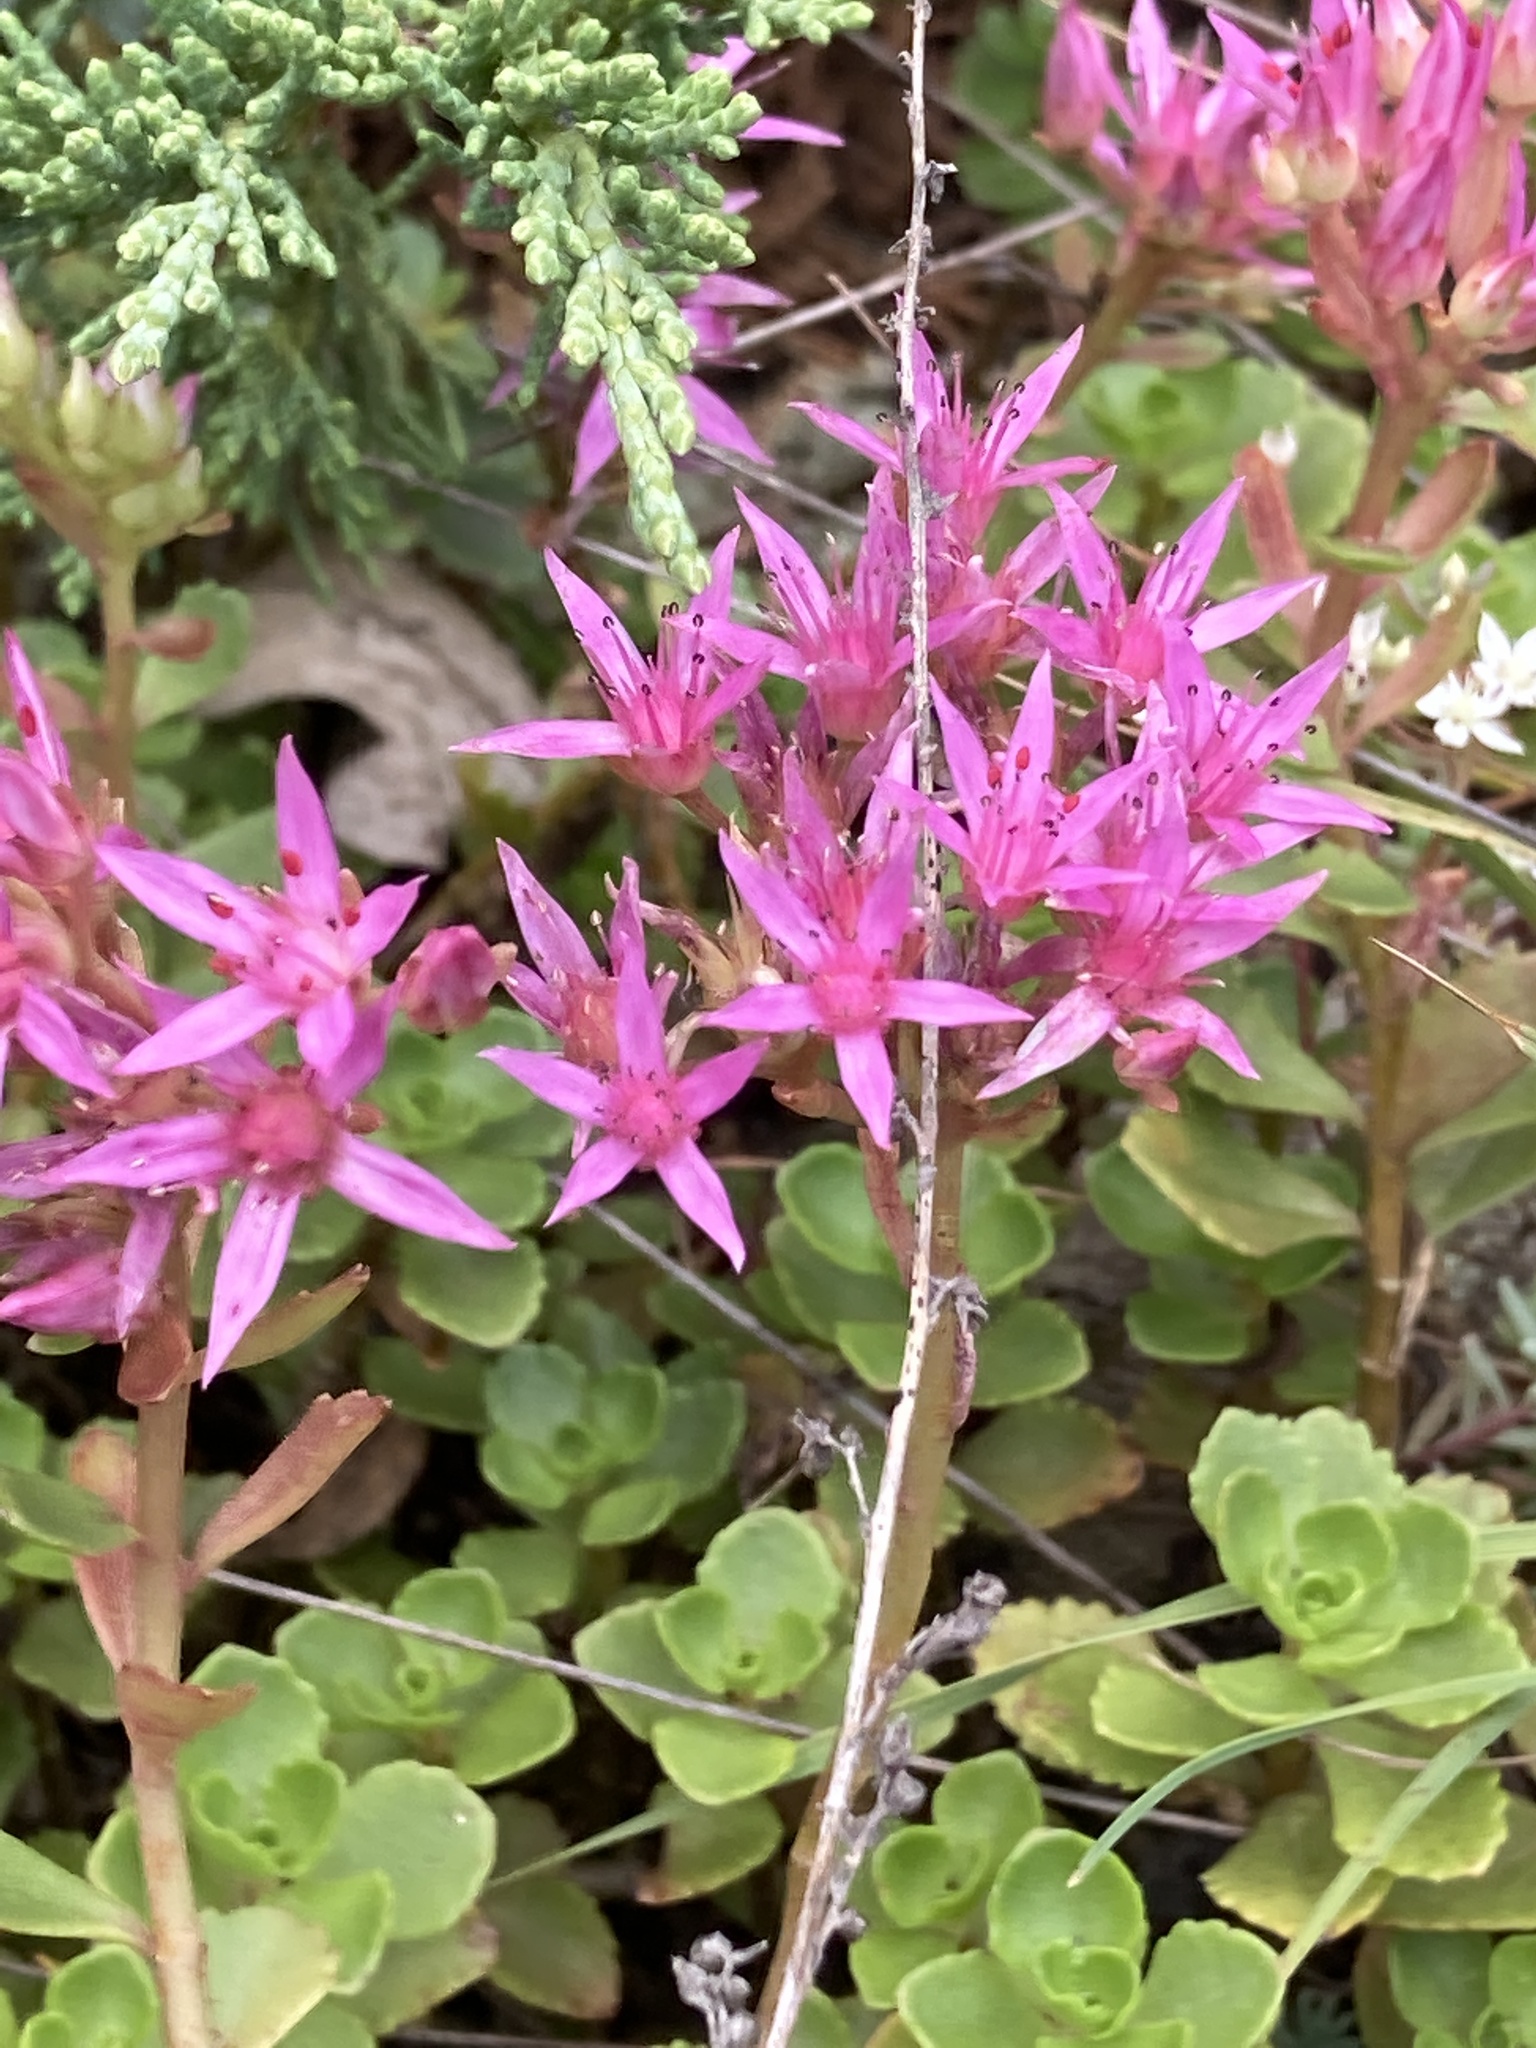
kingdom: Plantae
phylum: Tracheophyta
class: Magnoliopsida
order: Saxifragales
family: Crassulaceae
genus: Phedimus
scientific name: Phedimus spurius
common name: Caucasian stonecrop
